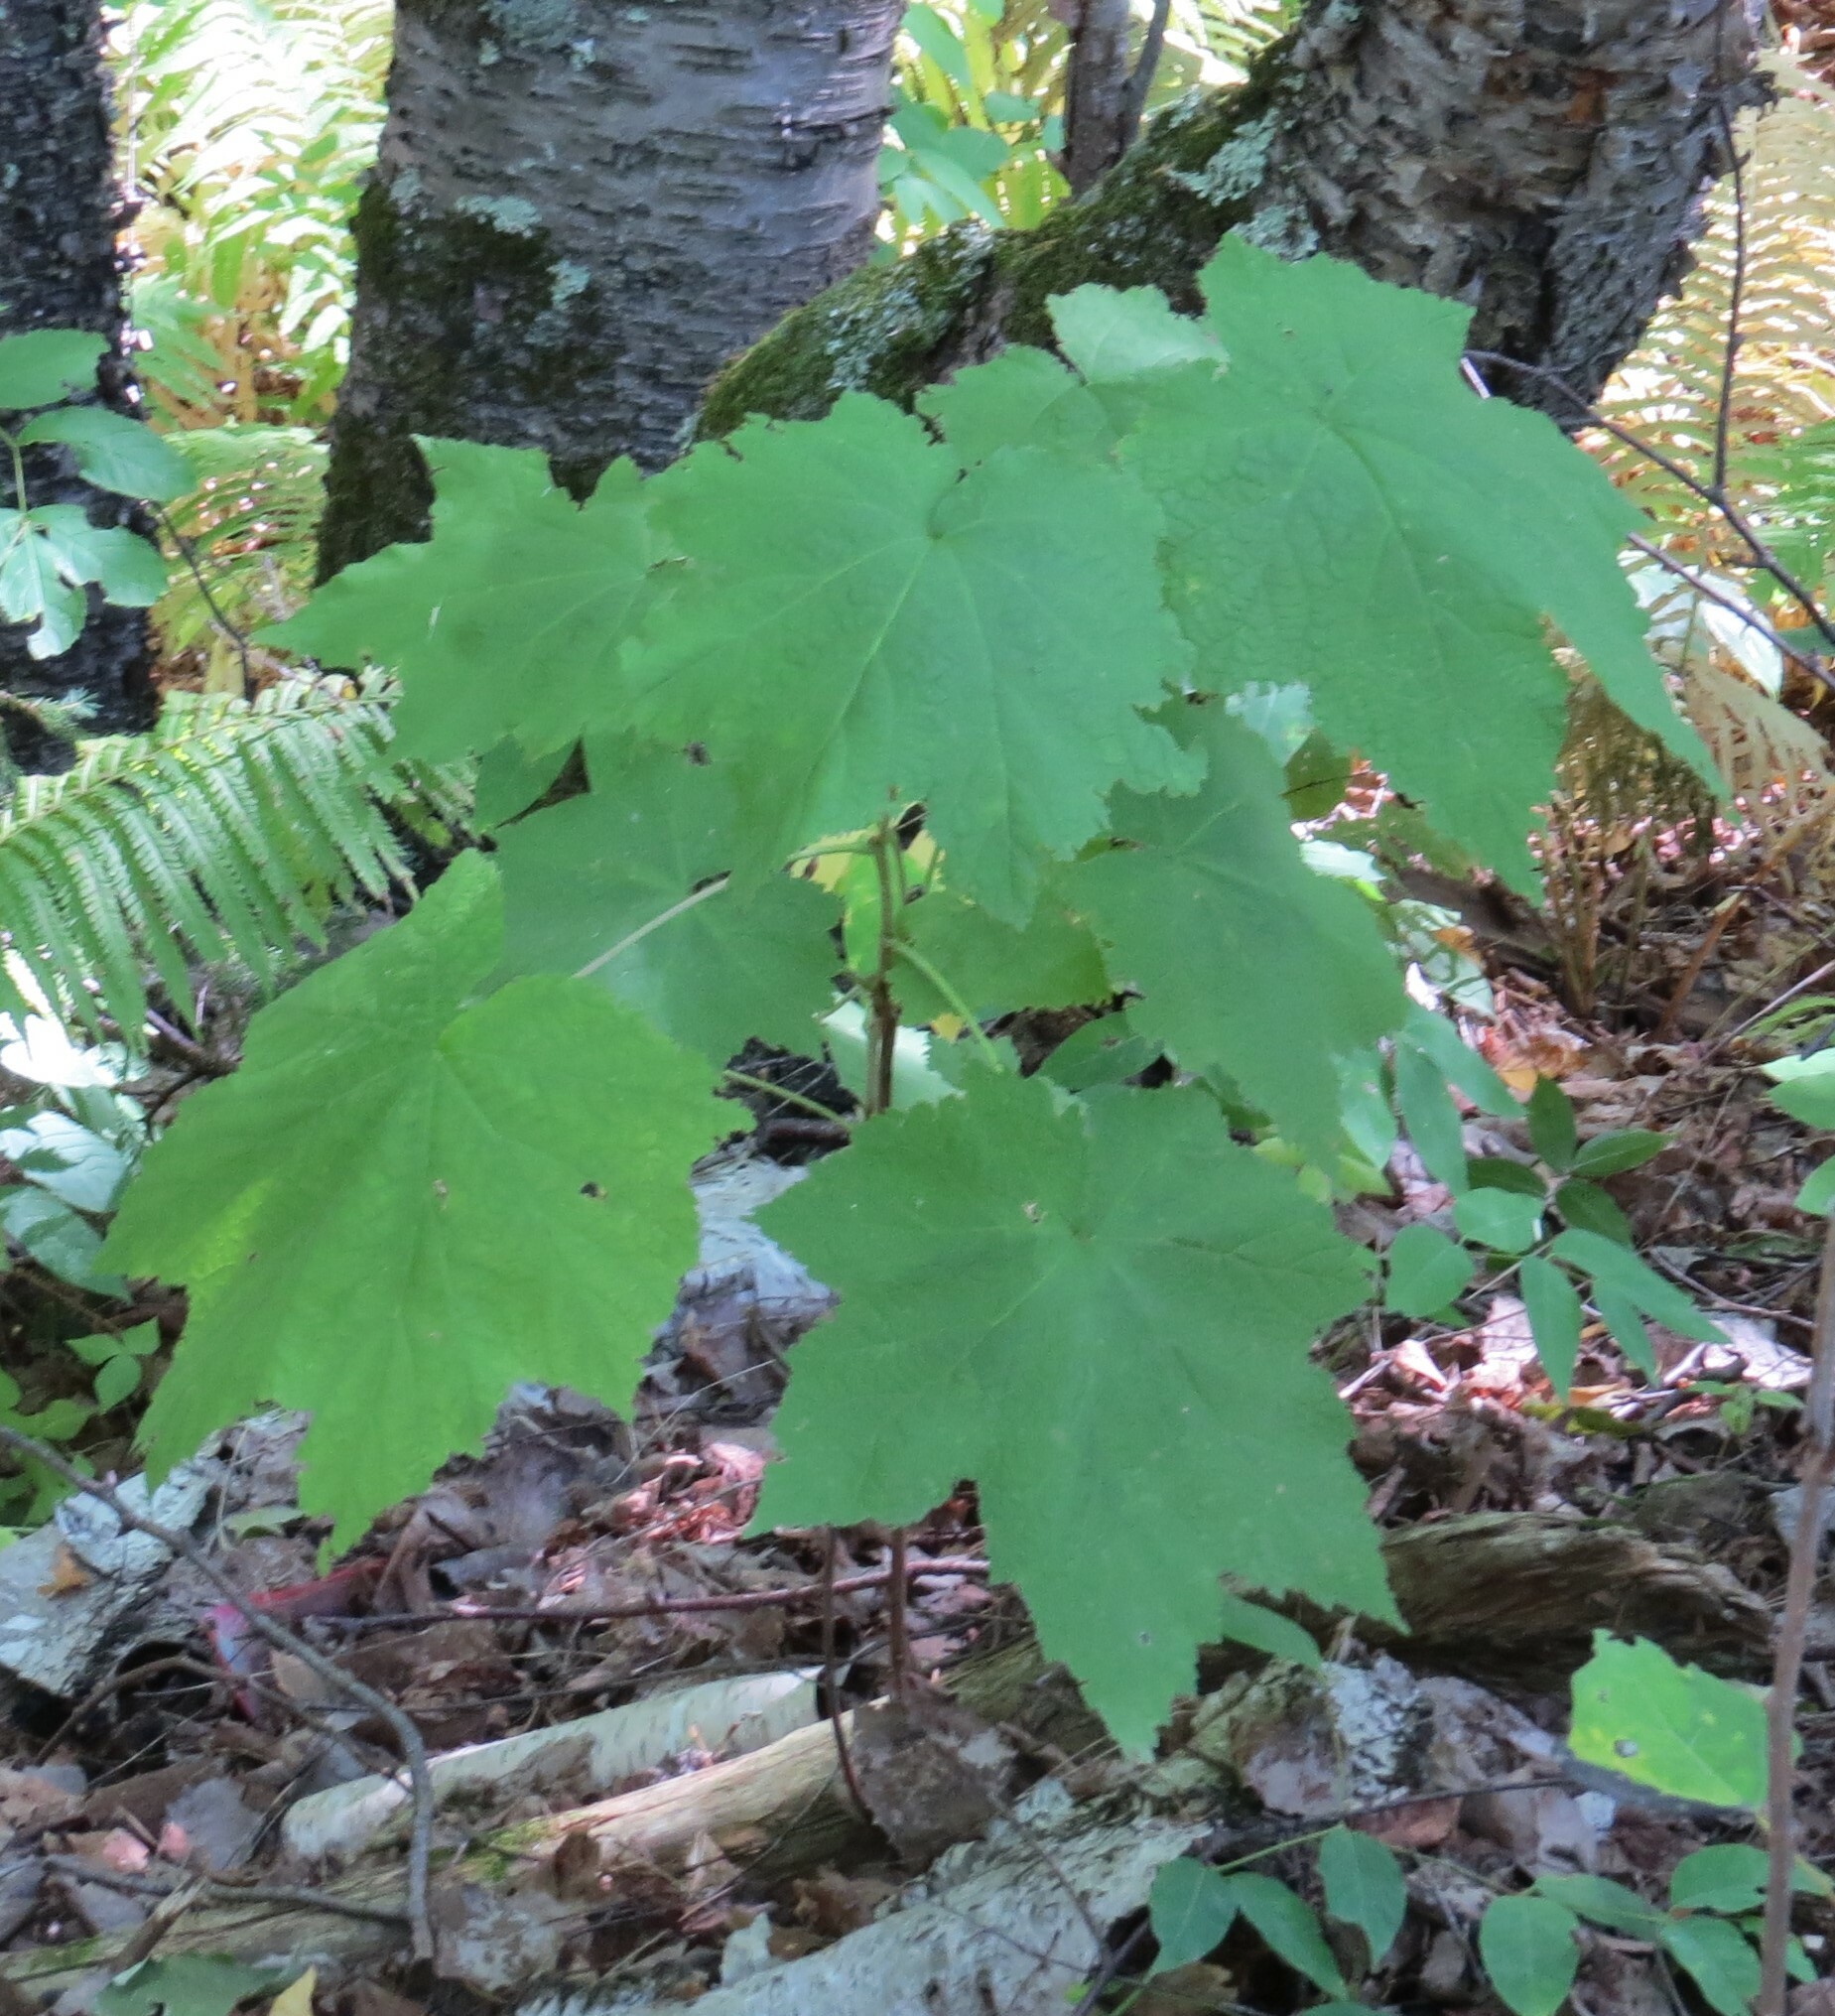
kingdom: Plantae
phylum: Tracheophyta
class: Magnoliopsida
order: Rosales
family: Rosaceae
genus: Rubus
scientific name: Rubus parviflorus
